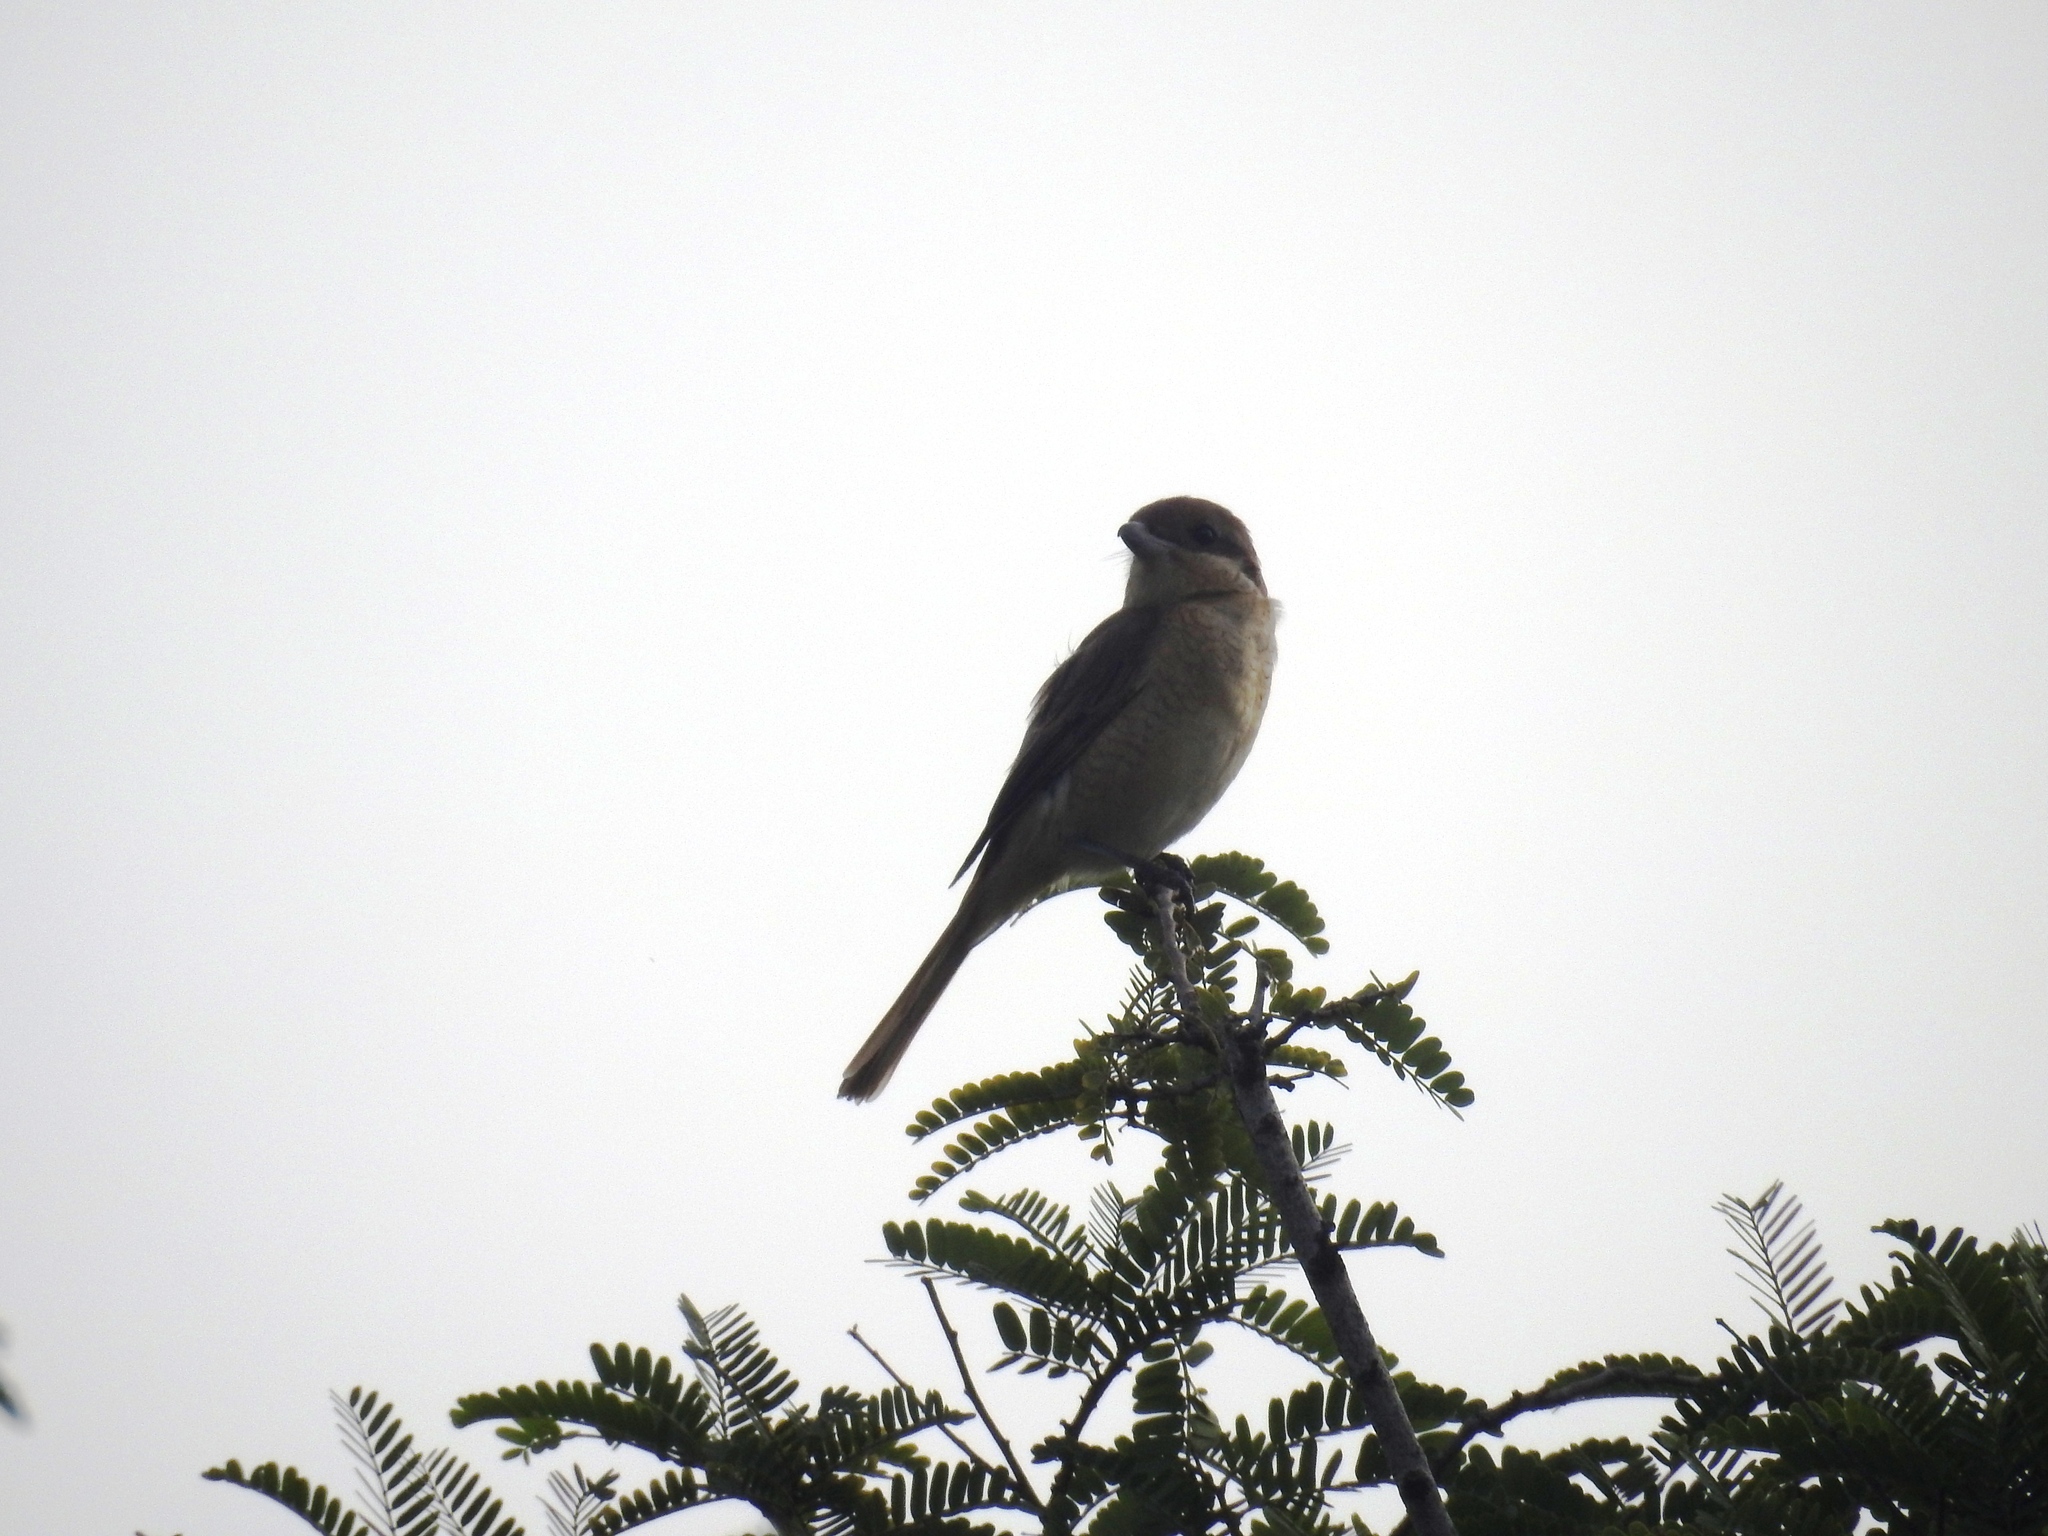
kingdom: Animalia
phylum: Chordata
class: Aves
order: Passeriformes
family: Laniidae
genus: Lanius
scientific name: Lanius cristatus
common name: Brown shrike
